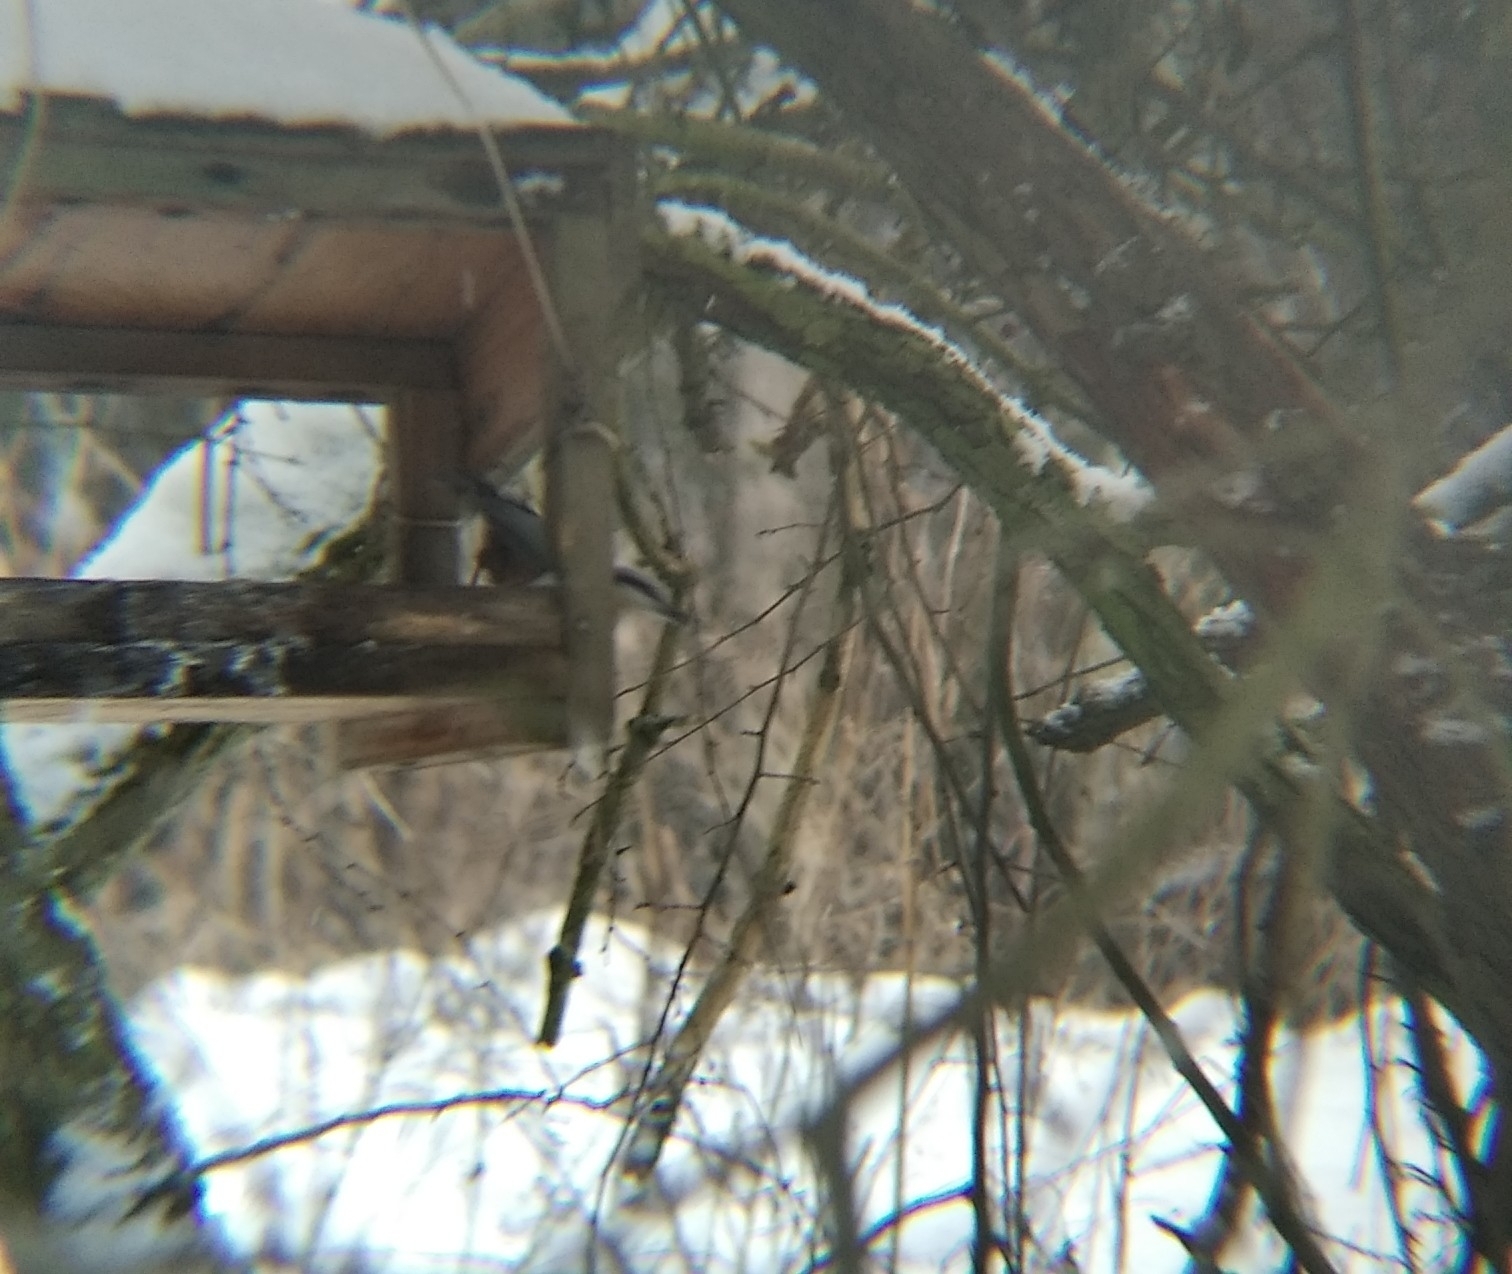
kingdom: Animalia
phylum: Chordata
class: Aves
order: Passeriformes
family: Sittidae
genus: Sitta
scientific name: Sitta europaea
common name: Eurasian nuthatch
